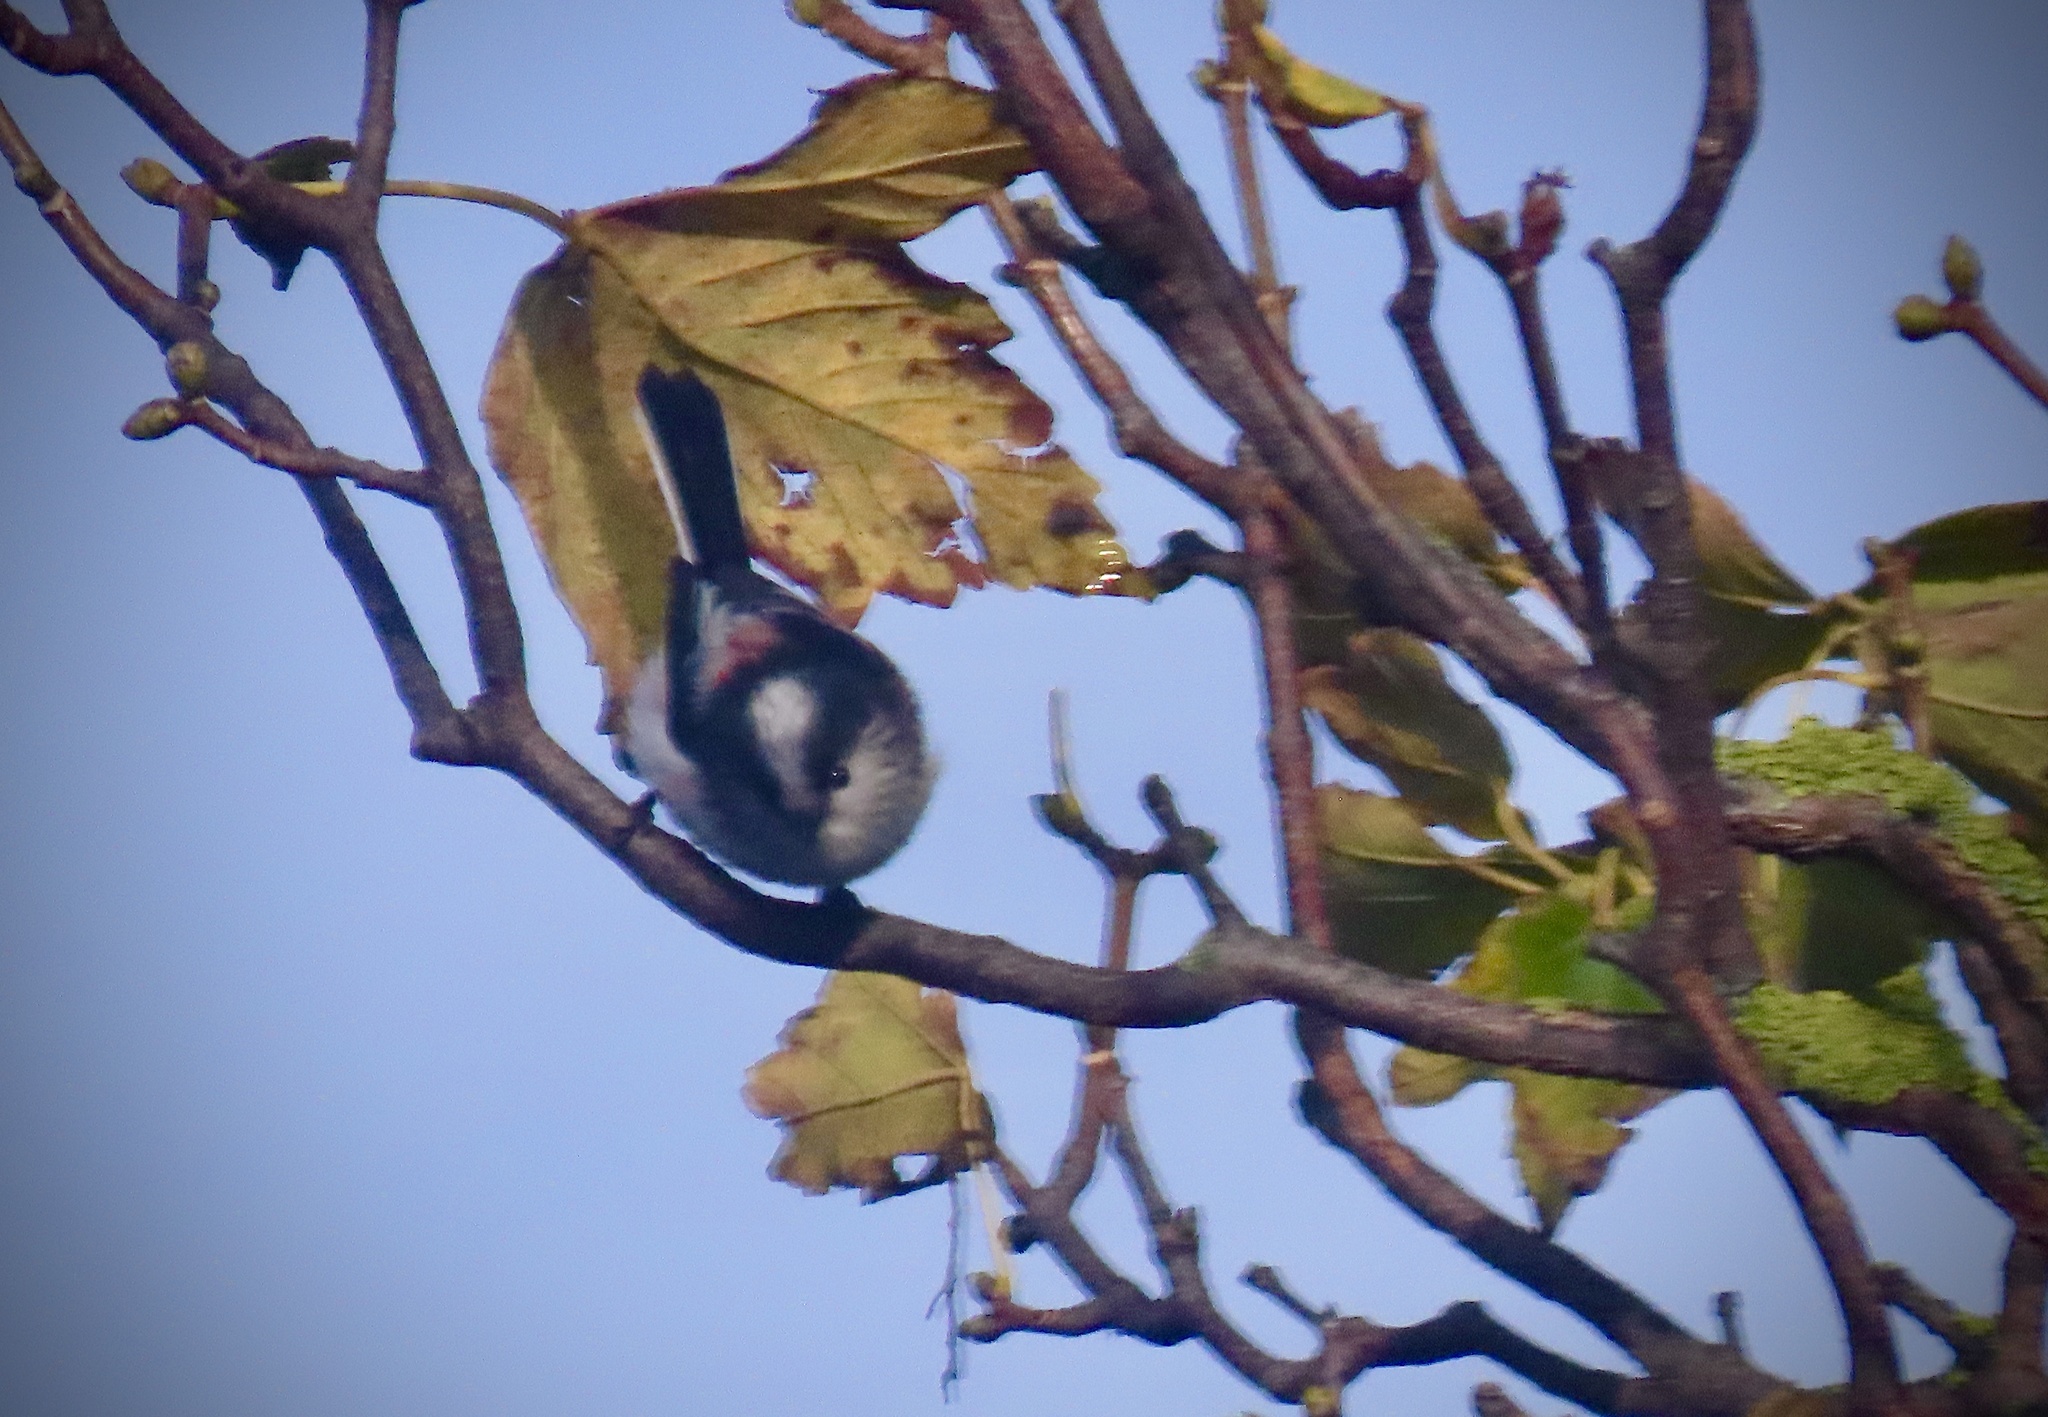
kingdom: Animalia
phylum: Chordata
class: Aves
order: Passeriformes
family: Aegithalidae
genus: Aegithalos
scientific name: Aegithalos caudatus
